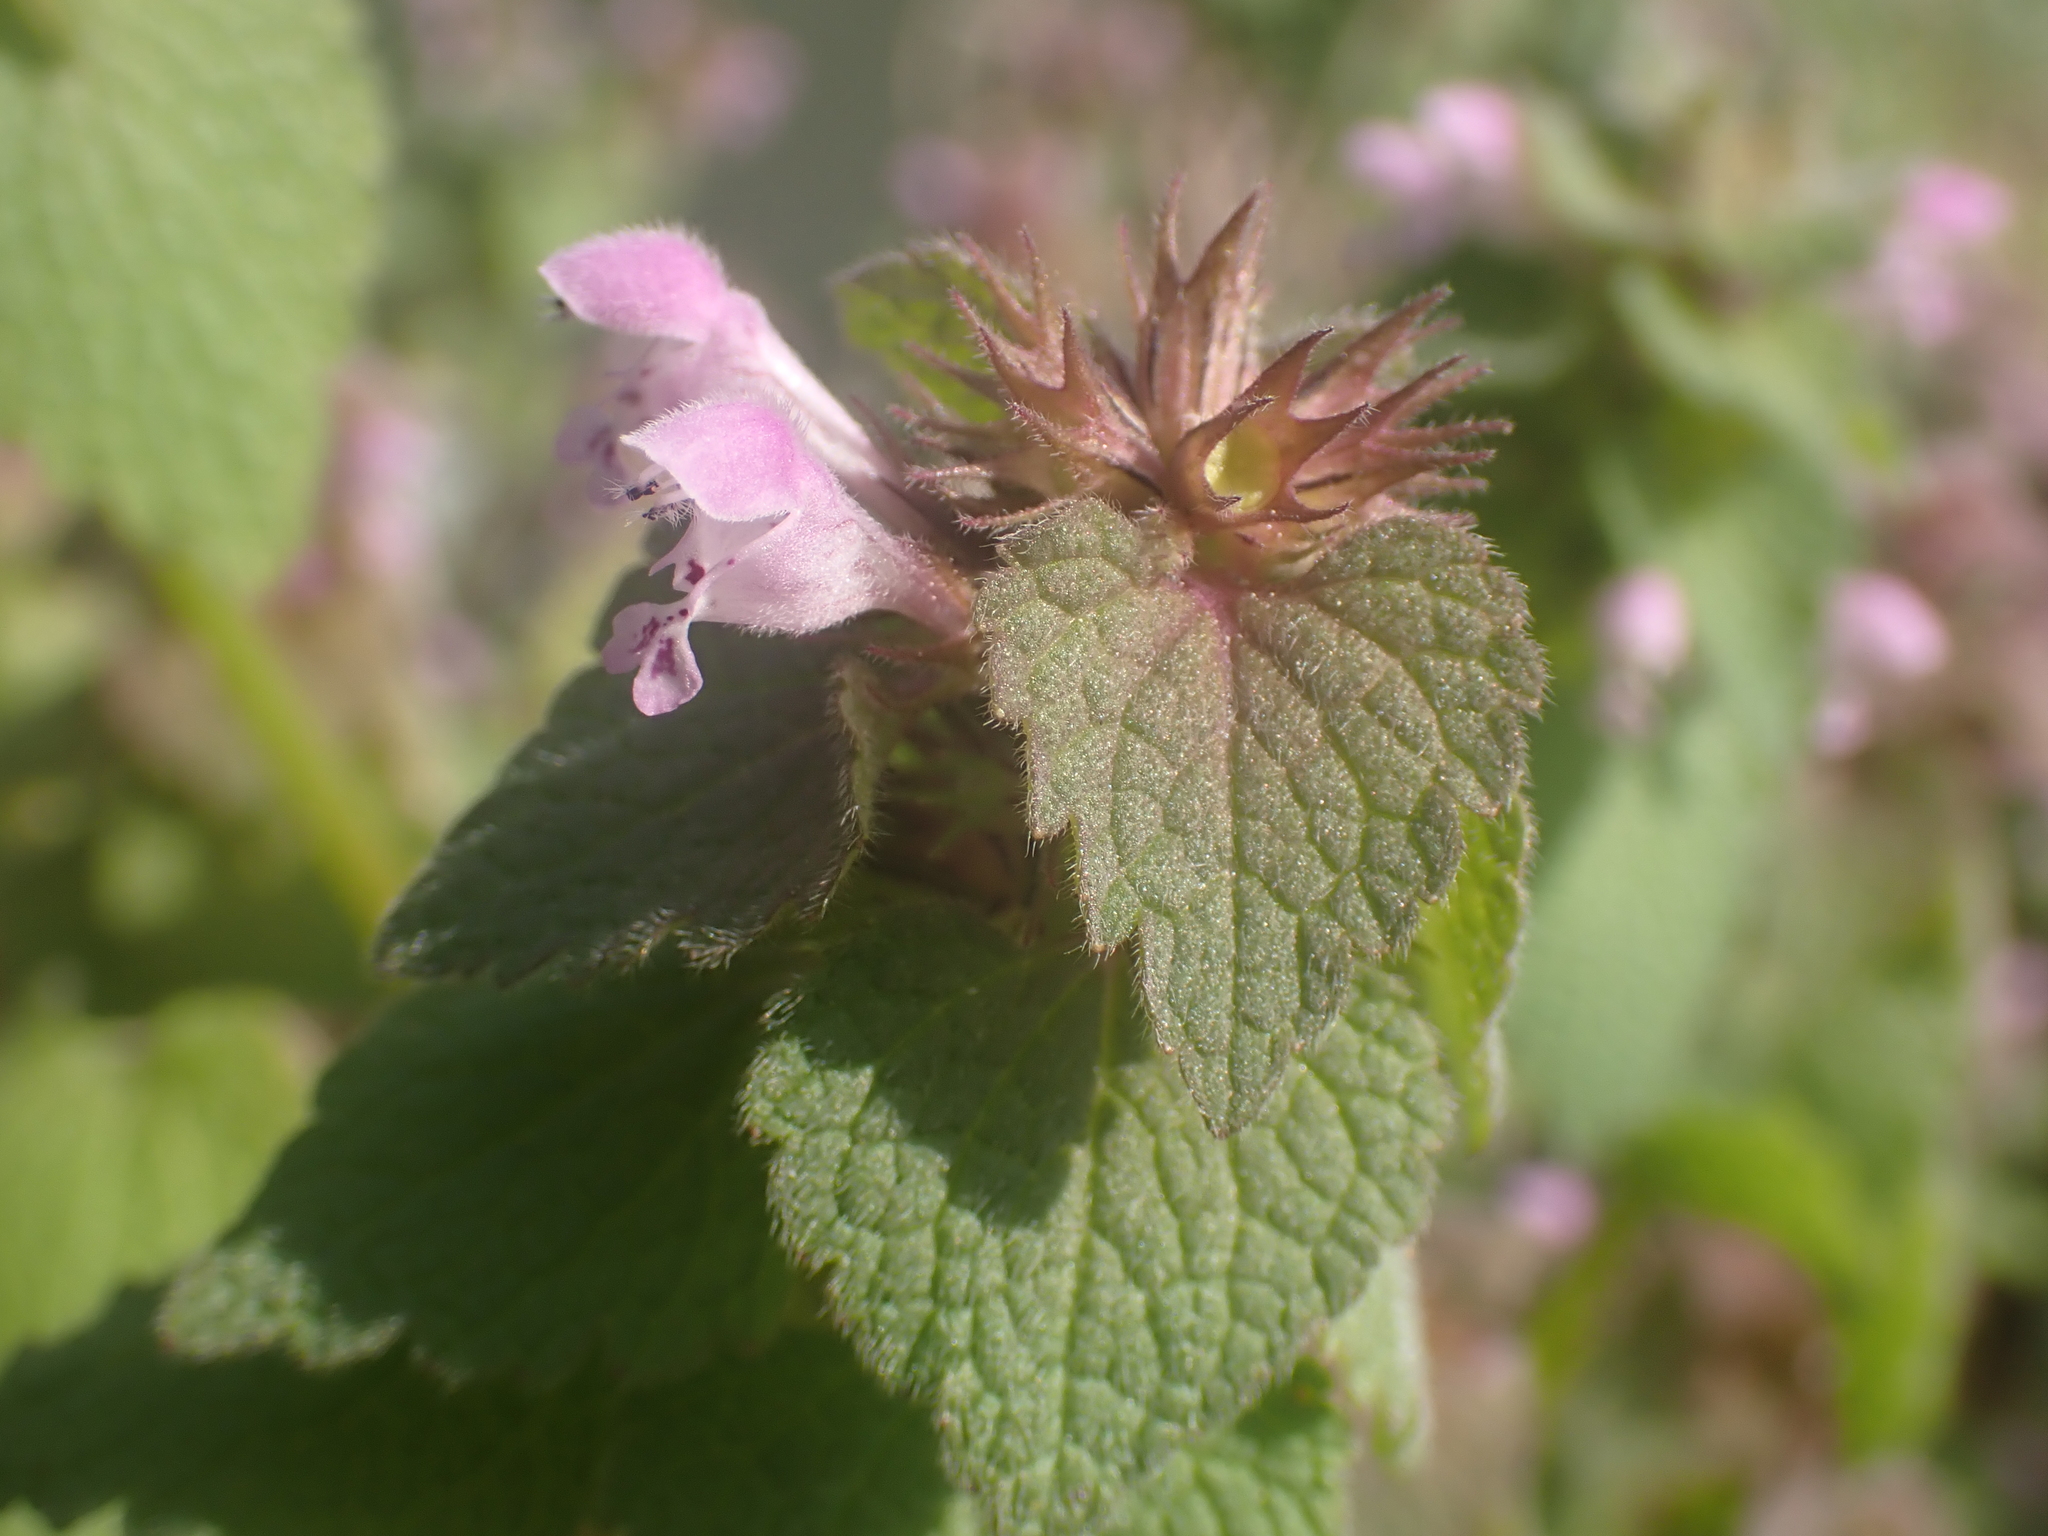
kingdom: Plantae
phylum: Tracheophyta
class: Magnoliopsida
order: Lamiales
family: Lamiaceae
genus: Lamium
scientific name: Lamium purpureum
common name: Red dead-nettle
